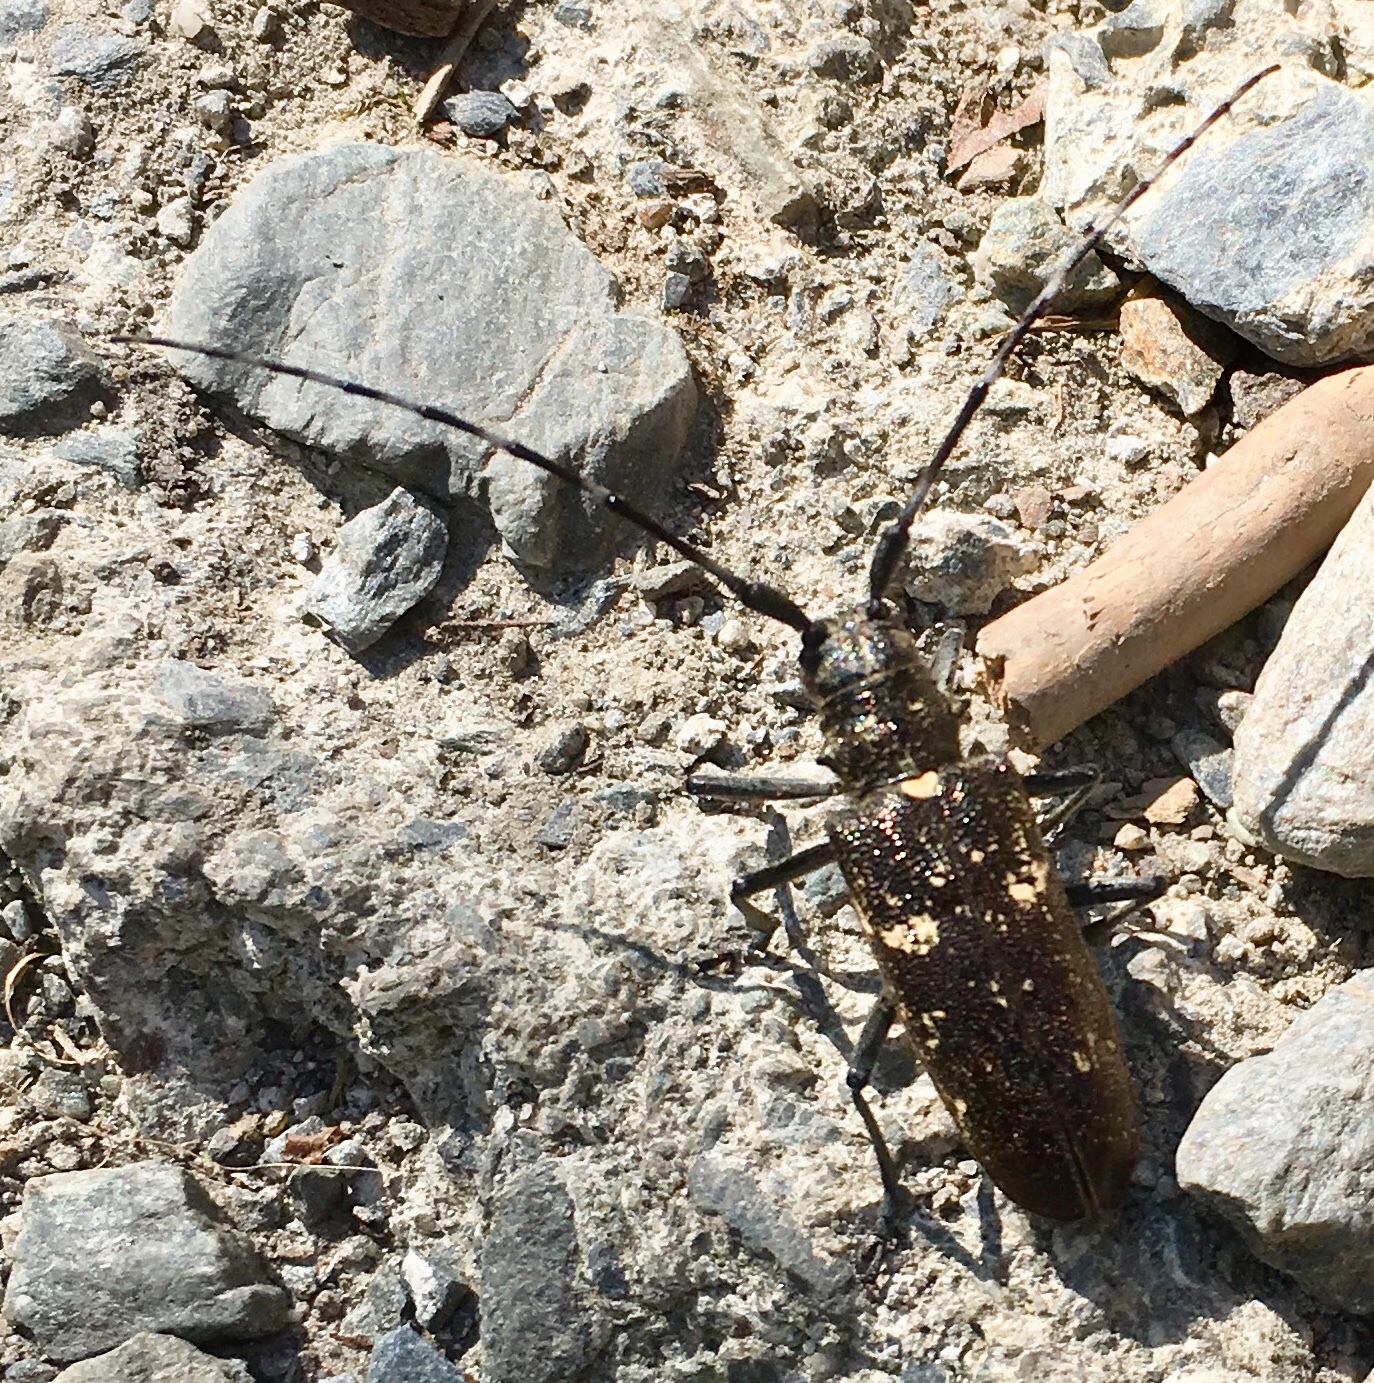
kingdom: Animalia
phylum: Arthropoda
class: Insecta
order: Coleoptera
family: Cerambycidae
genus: Monochamus
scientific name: Monochamus sartor
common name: Pine sawyer
